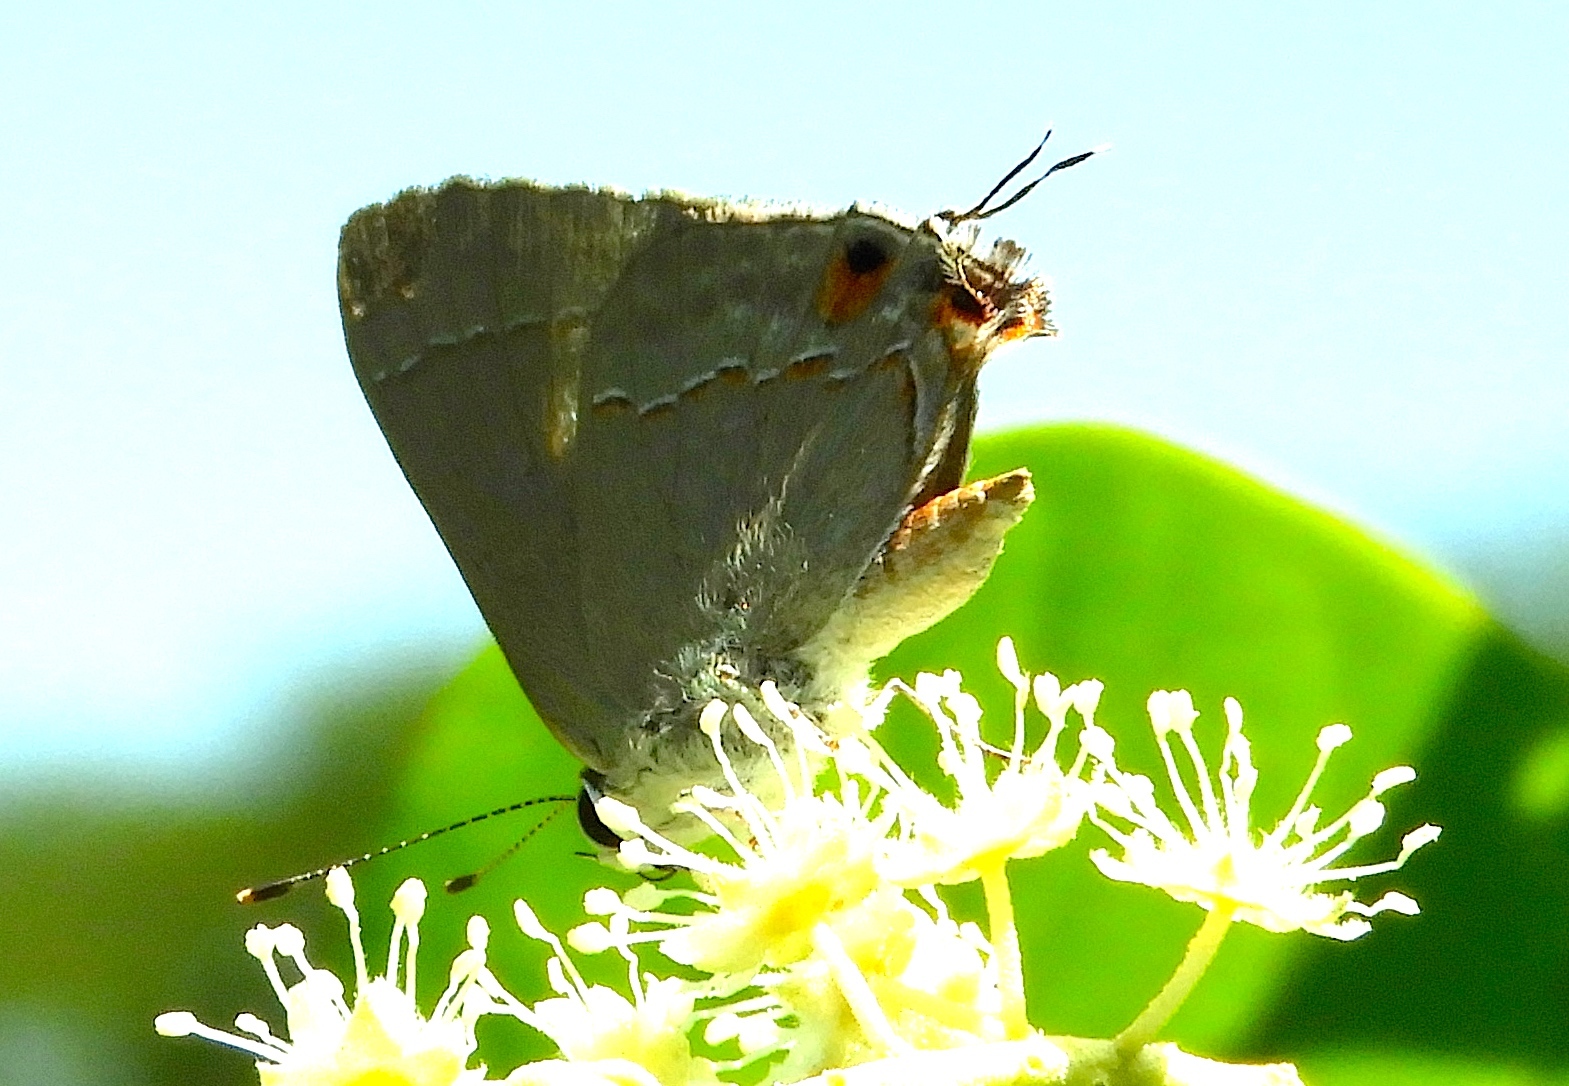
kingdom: Animalia
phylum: Arthropoda
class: Insecta
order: Lepidoptera
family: Lycaenidae
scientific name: Lycaenidae
